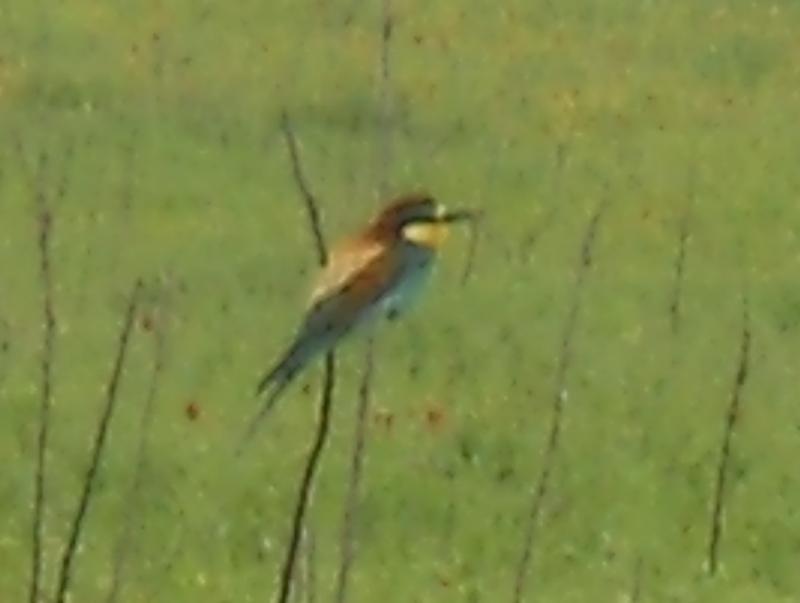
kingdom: Animalia
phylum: Chordata
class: Aves
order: Coraciiformes
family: Meropidae
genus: Merops
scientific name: Merops apiaster
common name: European bee-eater
